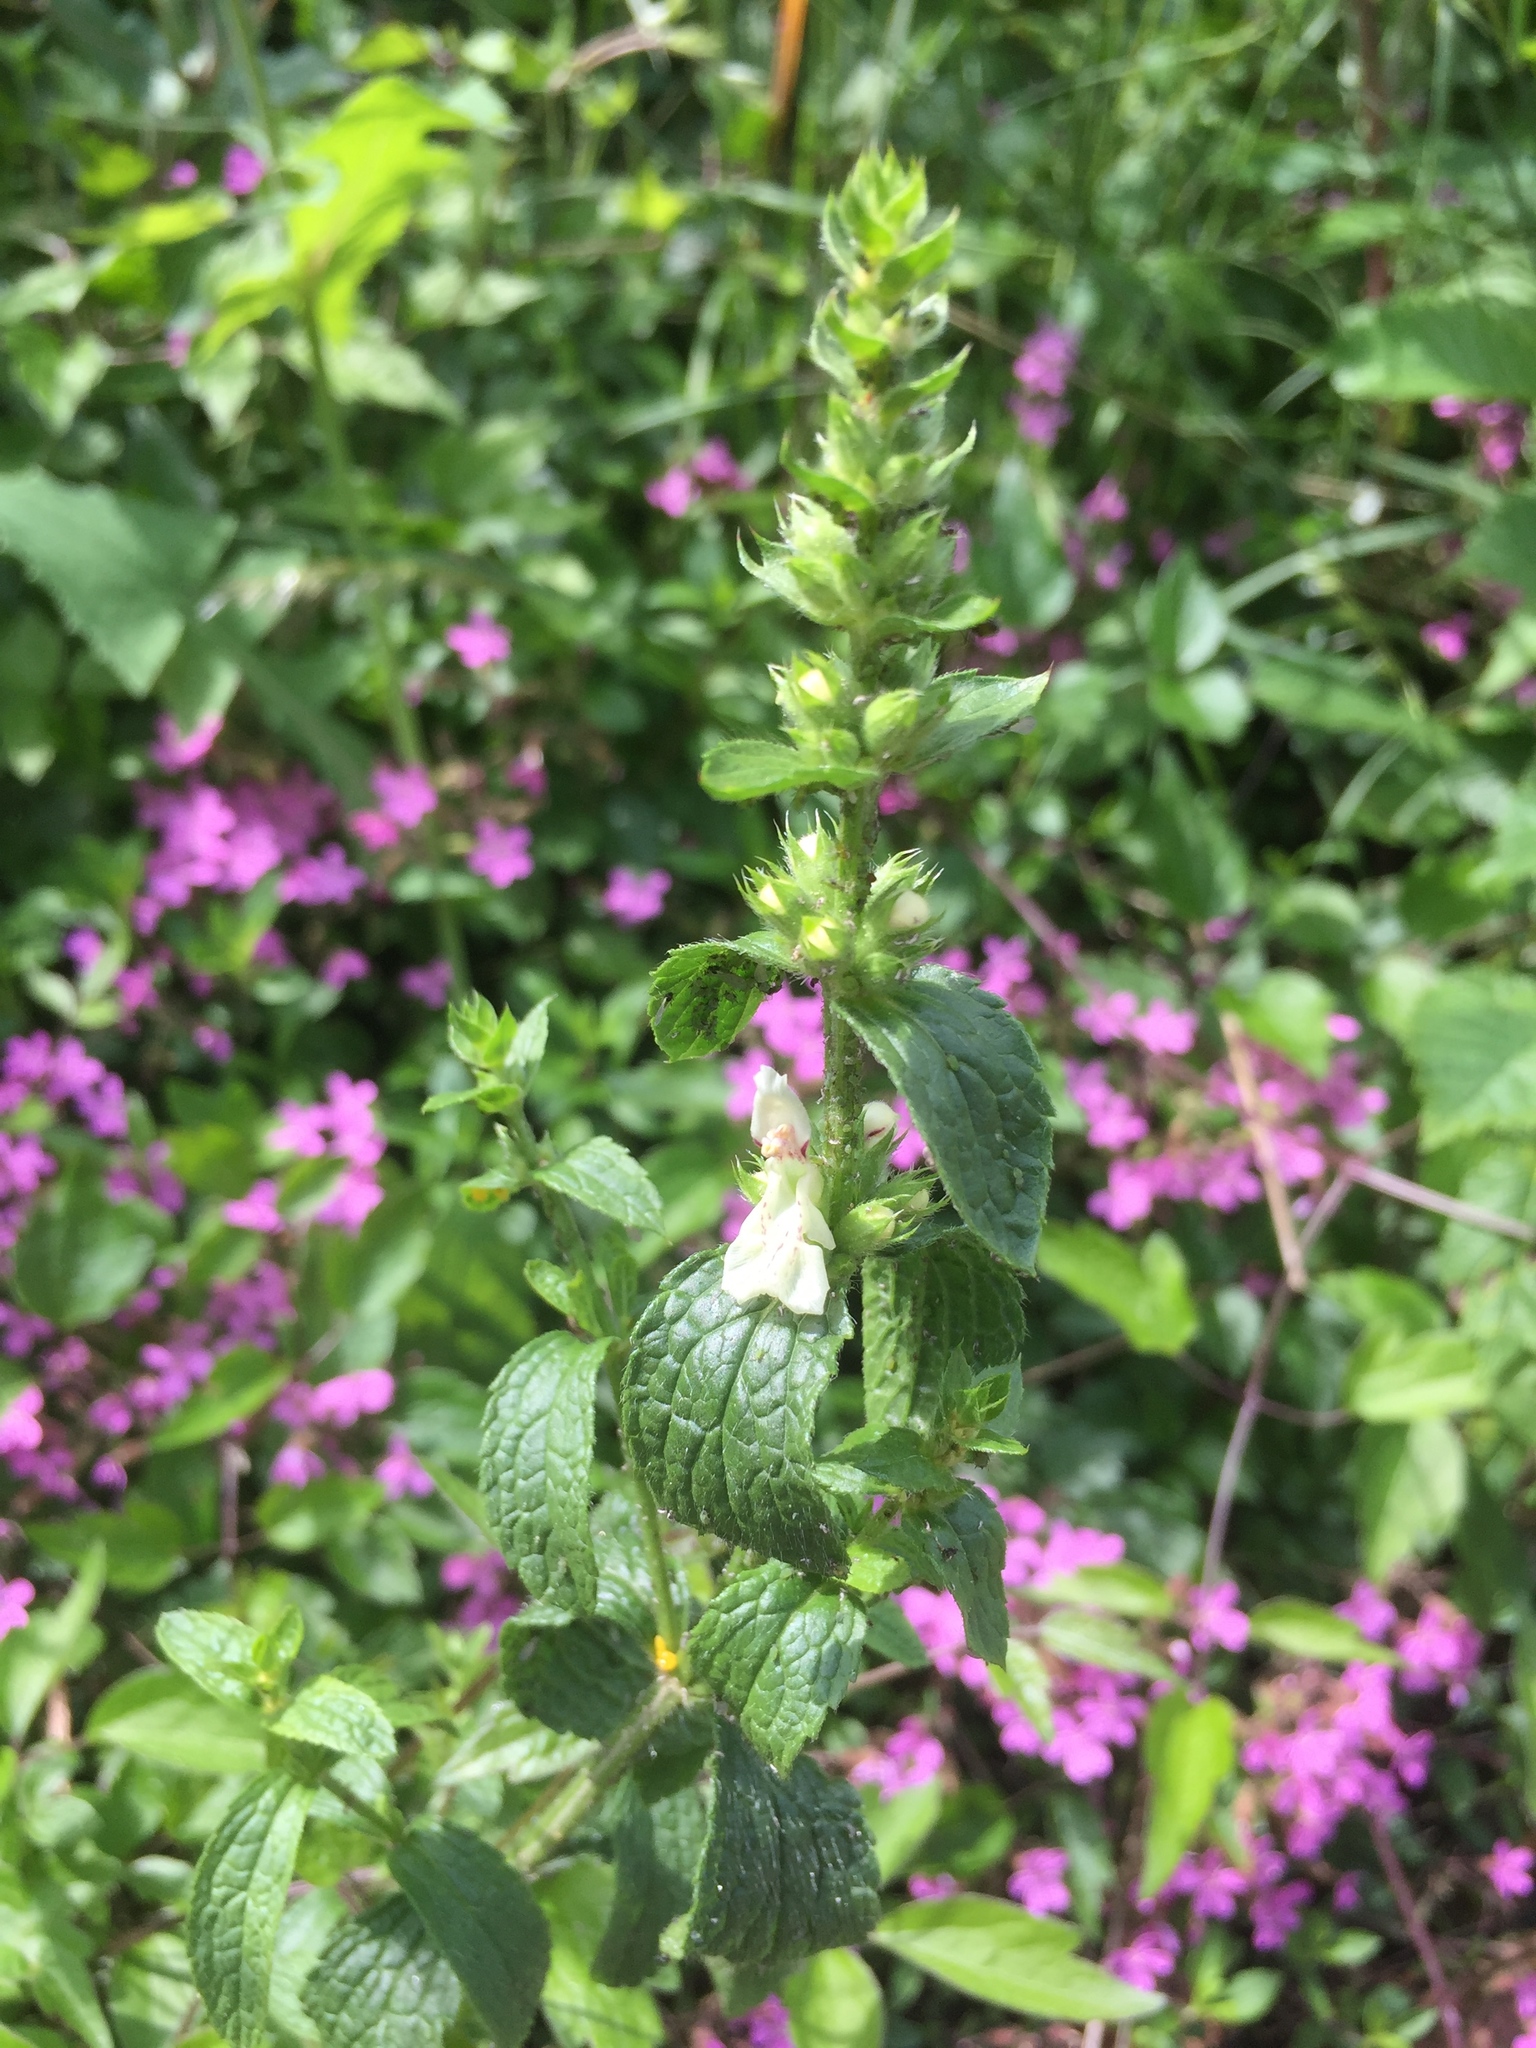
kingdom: Plantae
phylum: Tracheophyta
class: Magnoliopsida
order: Lamiales
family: Lamiaceae
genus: Stachys
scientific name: Stachys recta
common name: Perennial yellow-woundwort
